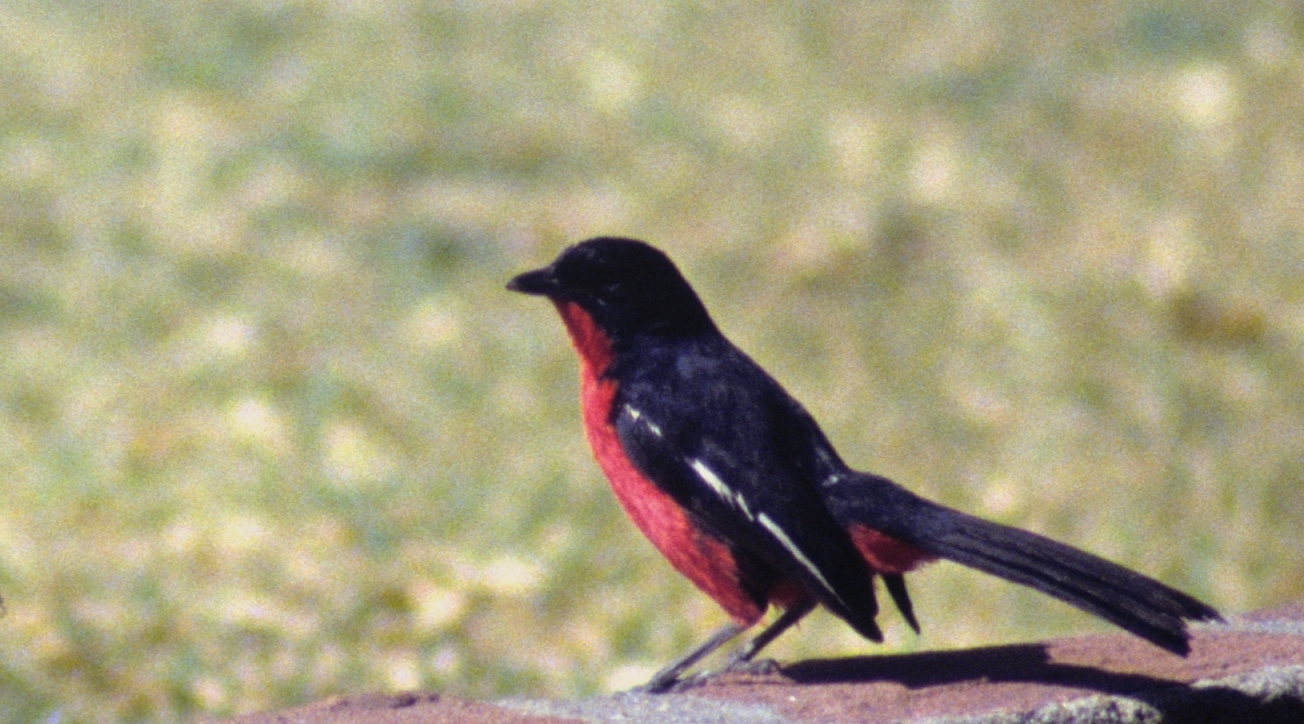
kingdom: Animalia
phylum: Chordata
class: Aves
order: Passeriformes
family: Malaconotidae
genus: Laniarius
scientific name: Laniarius atrococcineus
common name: Crimson-breasted shrike
